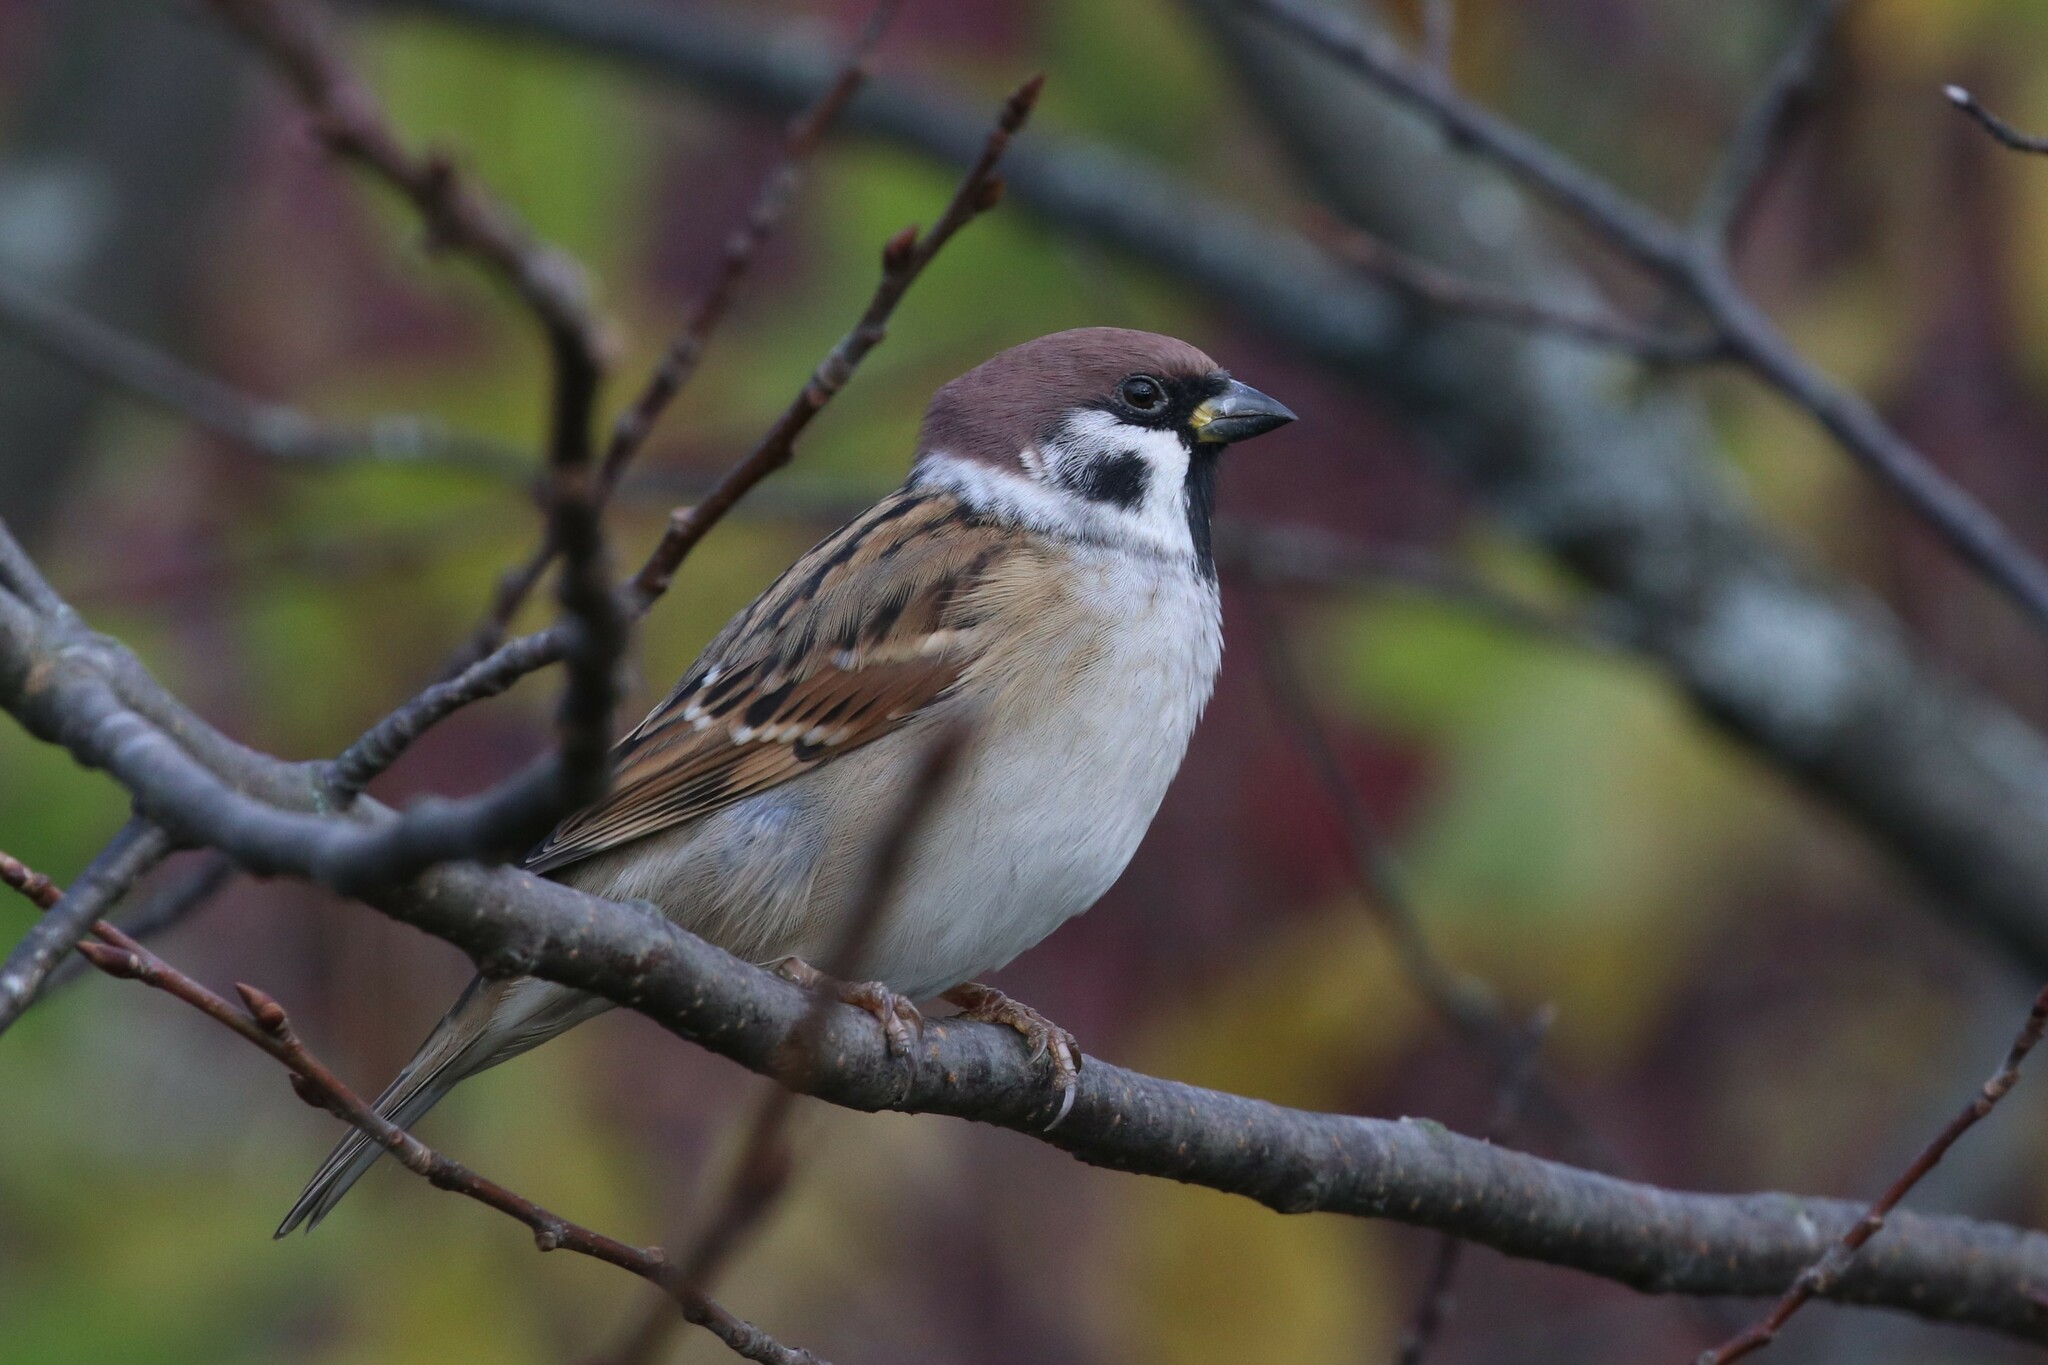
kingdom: Animalia
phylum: Chordata
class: Aves
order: Passeriformes
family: Passeridae
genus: Passer
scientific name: Passer montanus
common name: Eurasian tree sparrow
